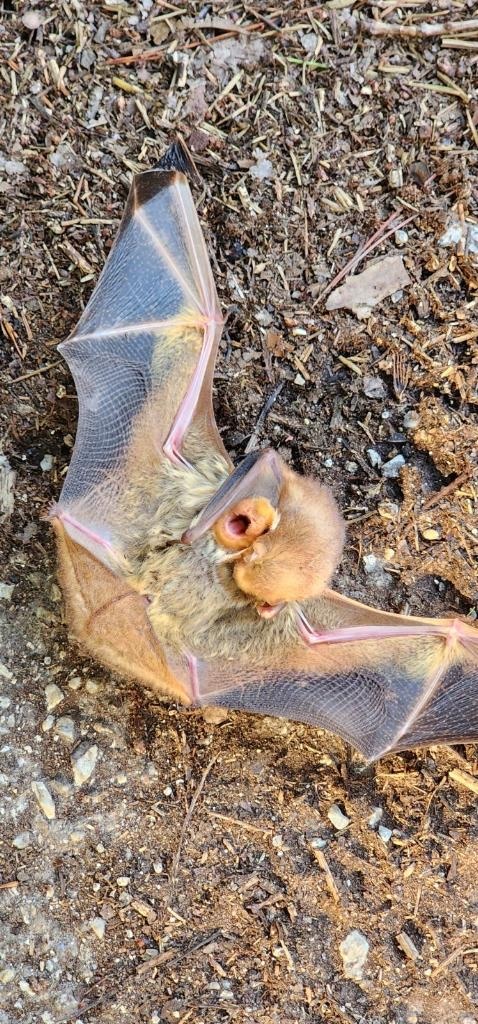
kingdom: Animalia
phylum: Chordata
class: Mammalia
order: Chiroptera
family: Vespertilionidae
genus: Lasiurus
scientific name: Lasiurus borealis
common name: Eastern red bat
